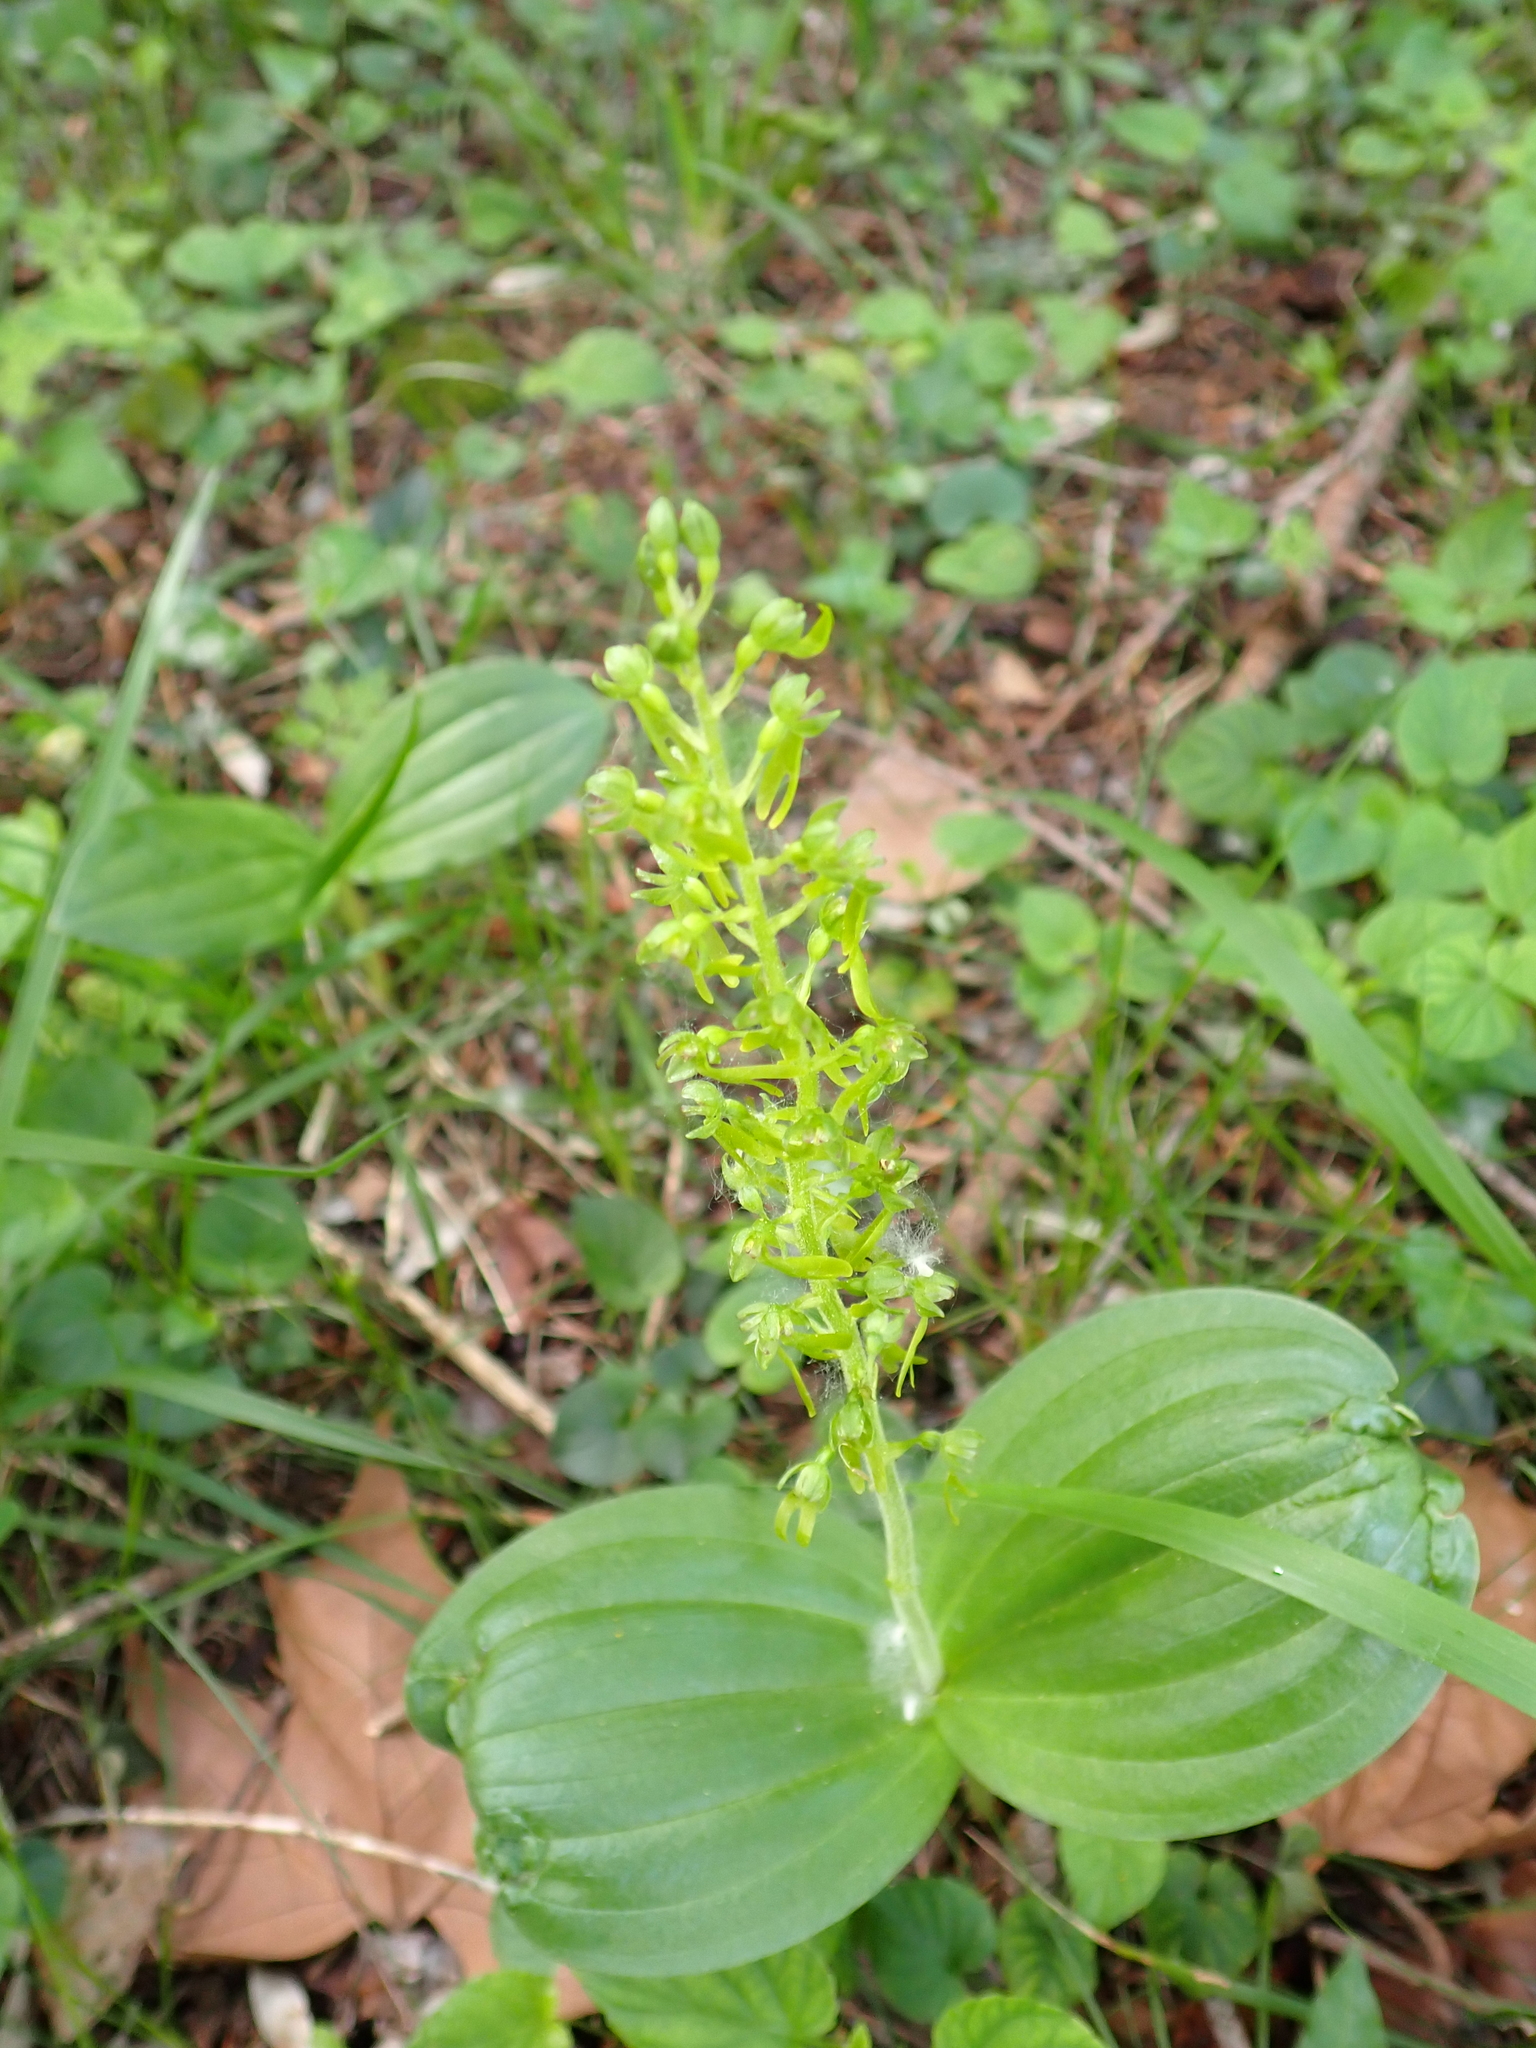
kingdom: Plantae
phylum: Tracheophyta
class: Liliopsida
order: Asparagales
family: Orchidaceae
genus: Neottia
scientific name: Neottia ovata
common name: Common twayblade
